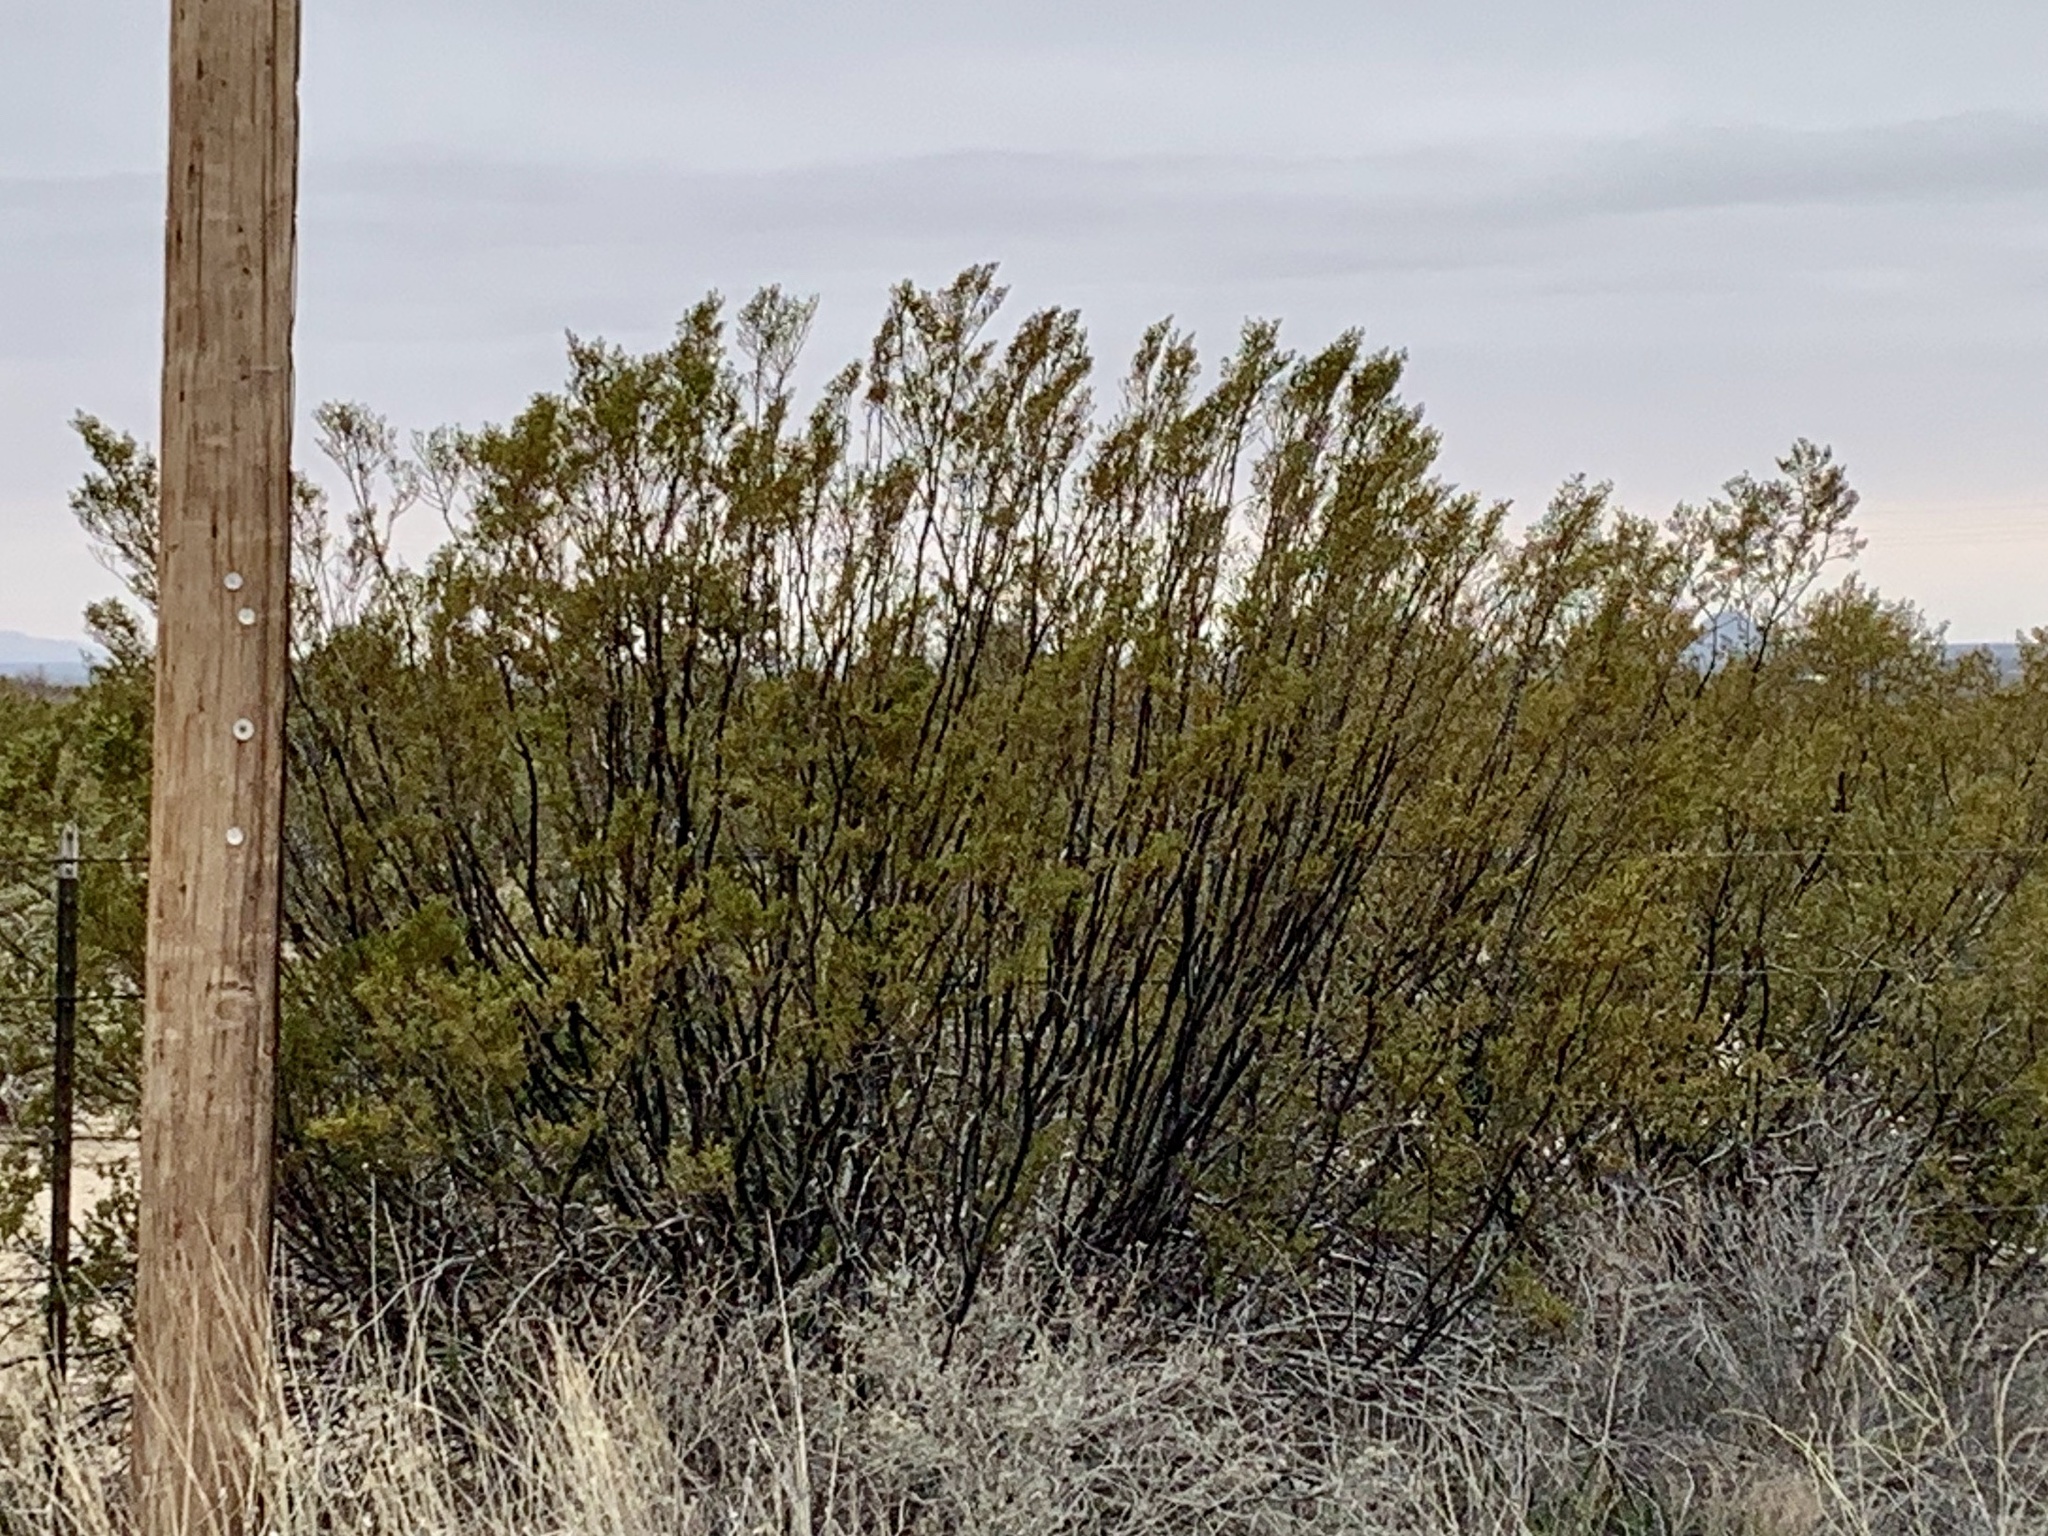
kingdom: Plantae
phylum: Tracheophyta
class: Magnoliopsida
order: Zygophyllales
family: Zygophyllaceae
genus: Larrea
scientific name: Larrea tridentata
